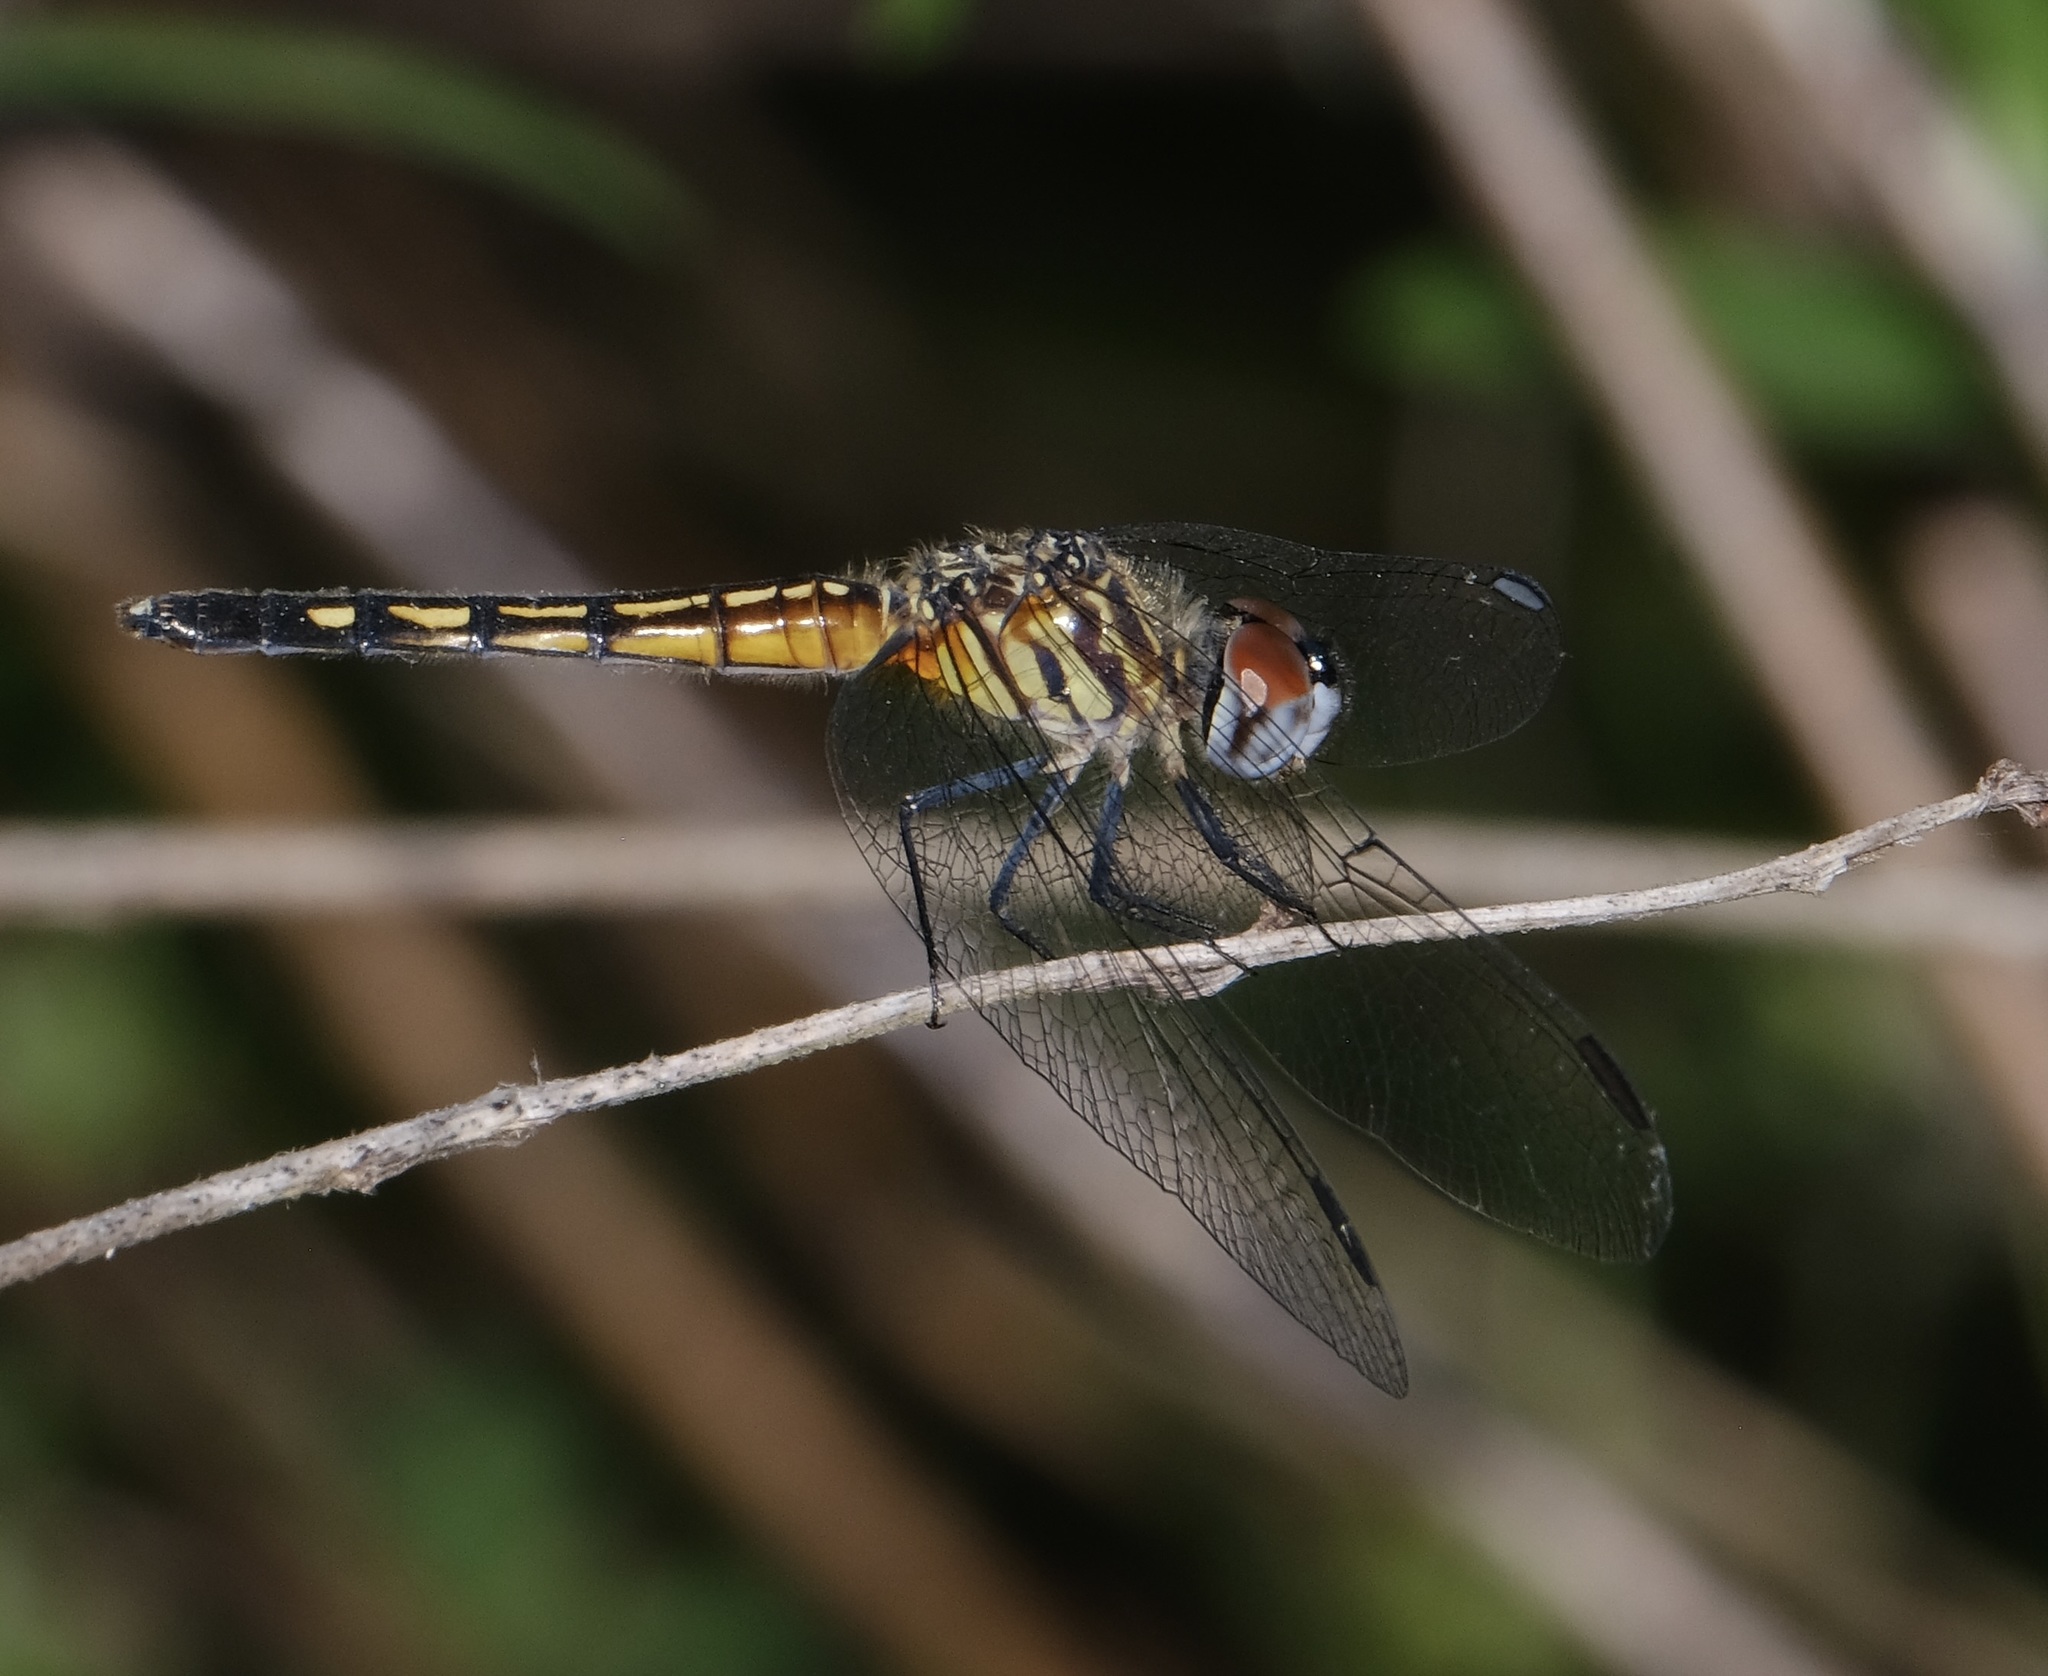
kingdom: Animalia
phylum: Arthropoda
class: Insecta
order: Odonata
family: Libellulidae
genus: Pachydiplax
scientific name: Pachydiplax longipennis
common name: Blue dasher
